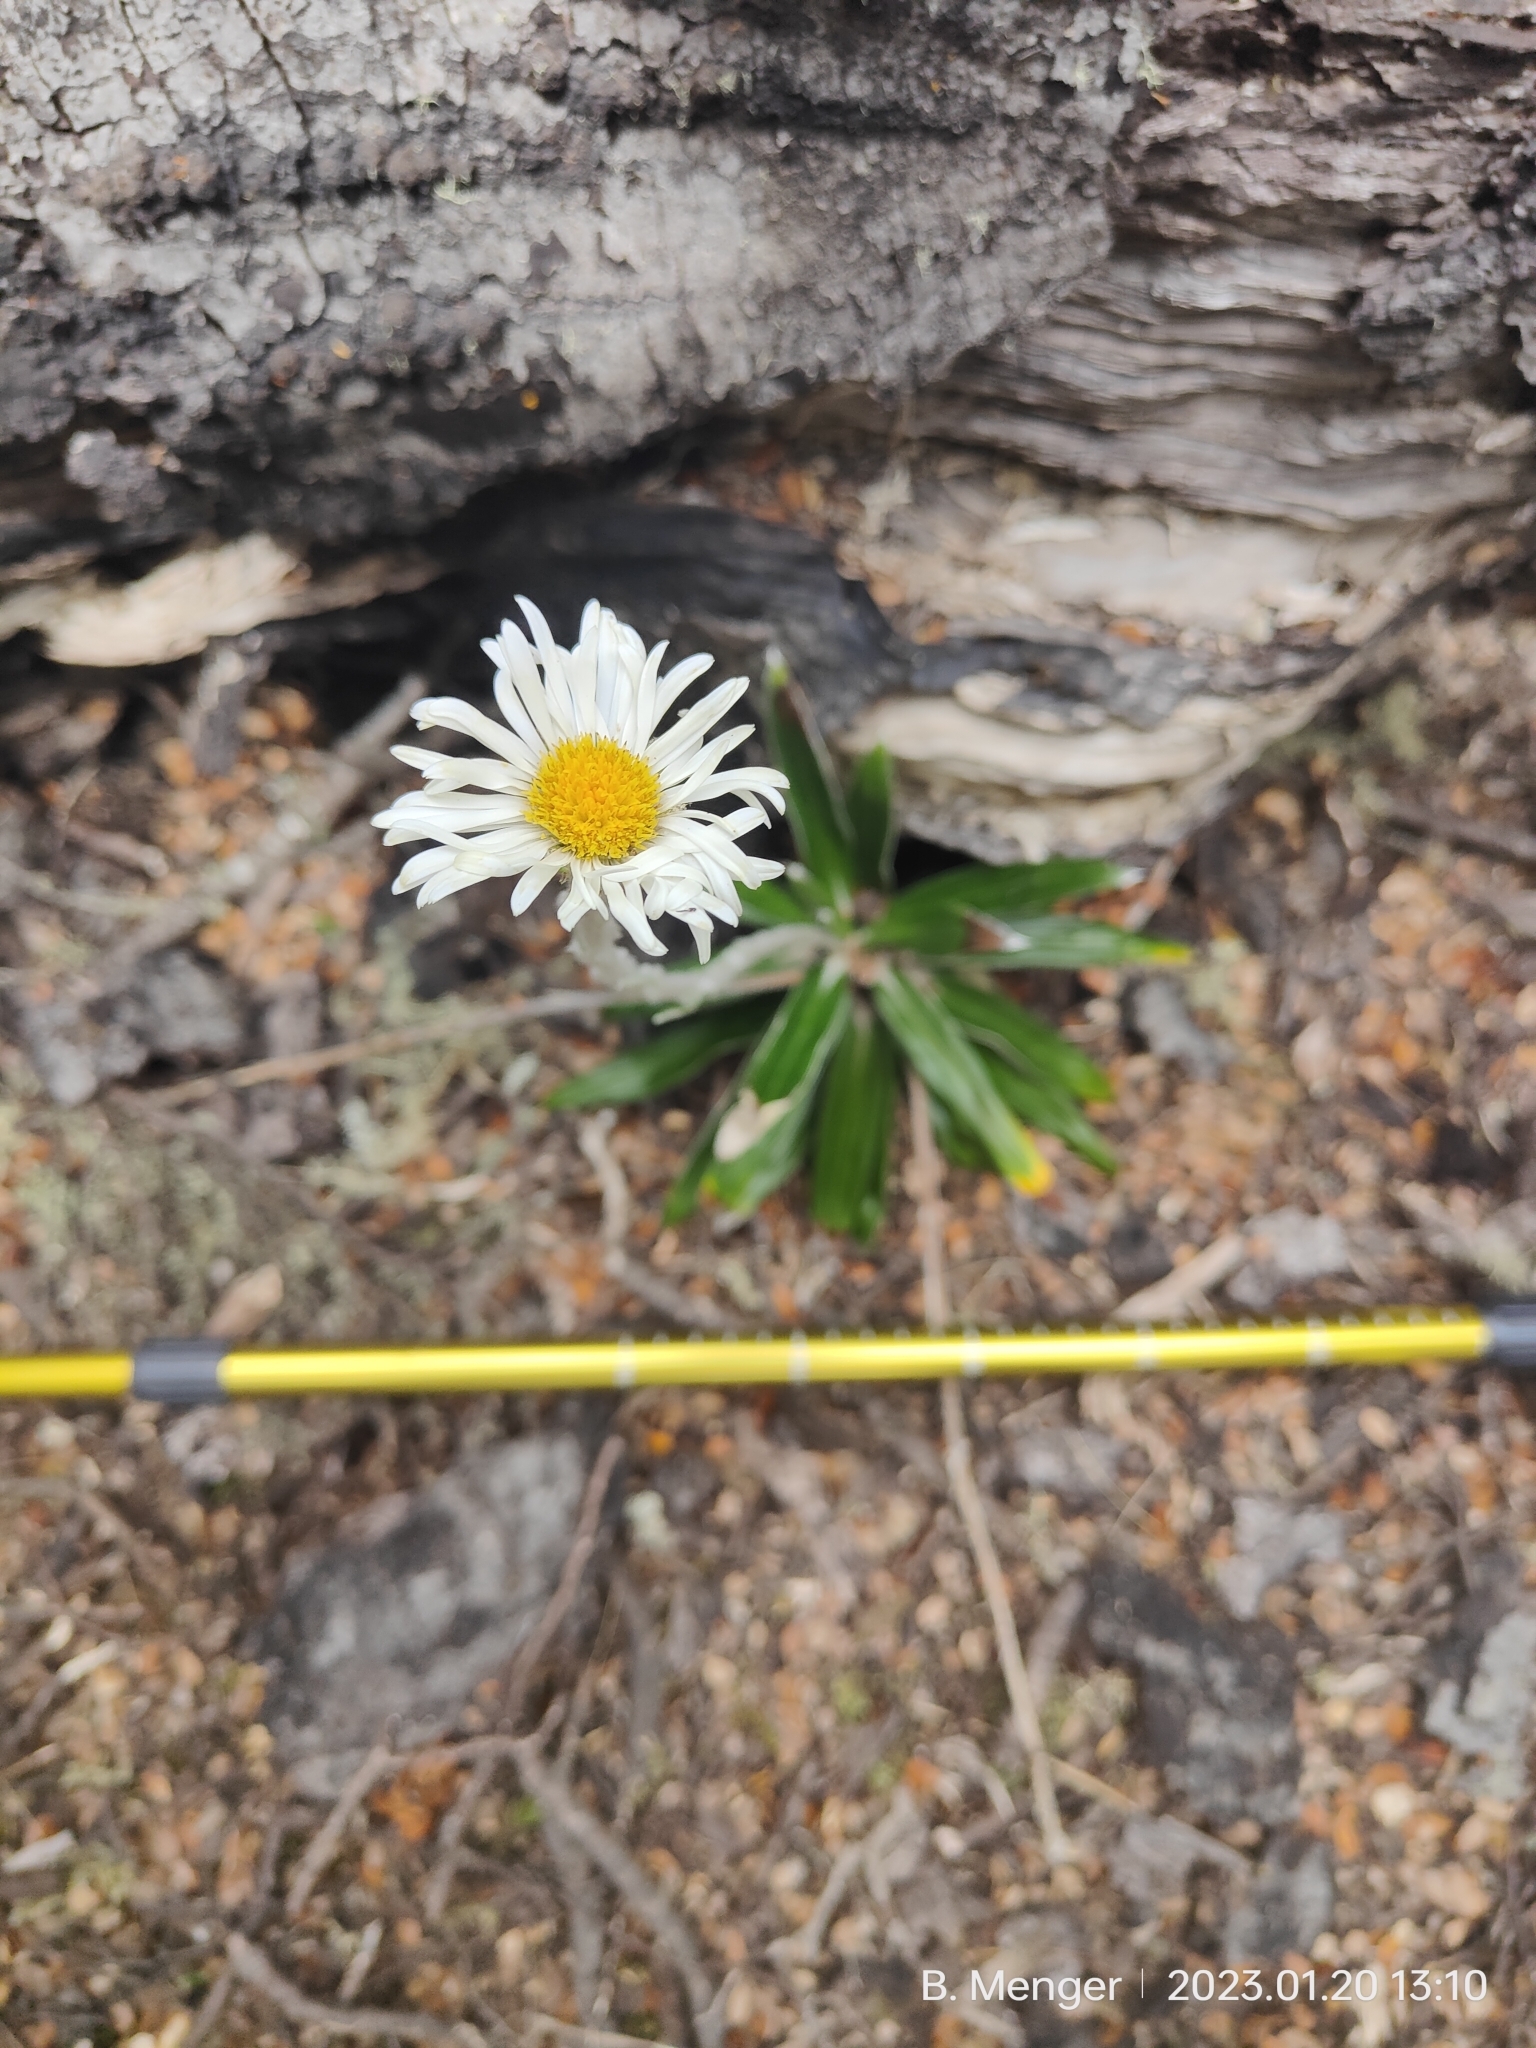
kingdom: Plantae
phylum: Tracheophyta
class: Magnoliopsida
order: Asterales
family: Asteraceae
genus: Celmisia
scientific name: Celmisia spectabilis
